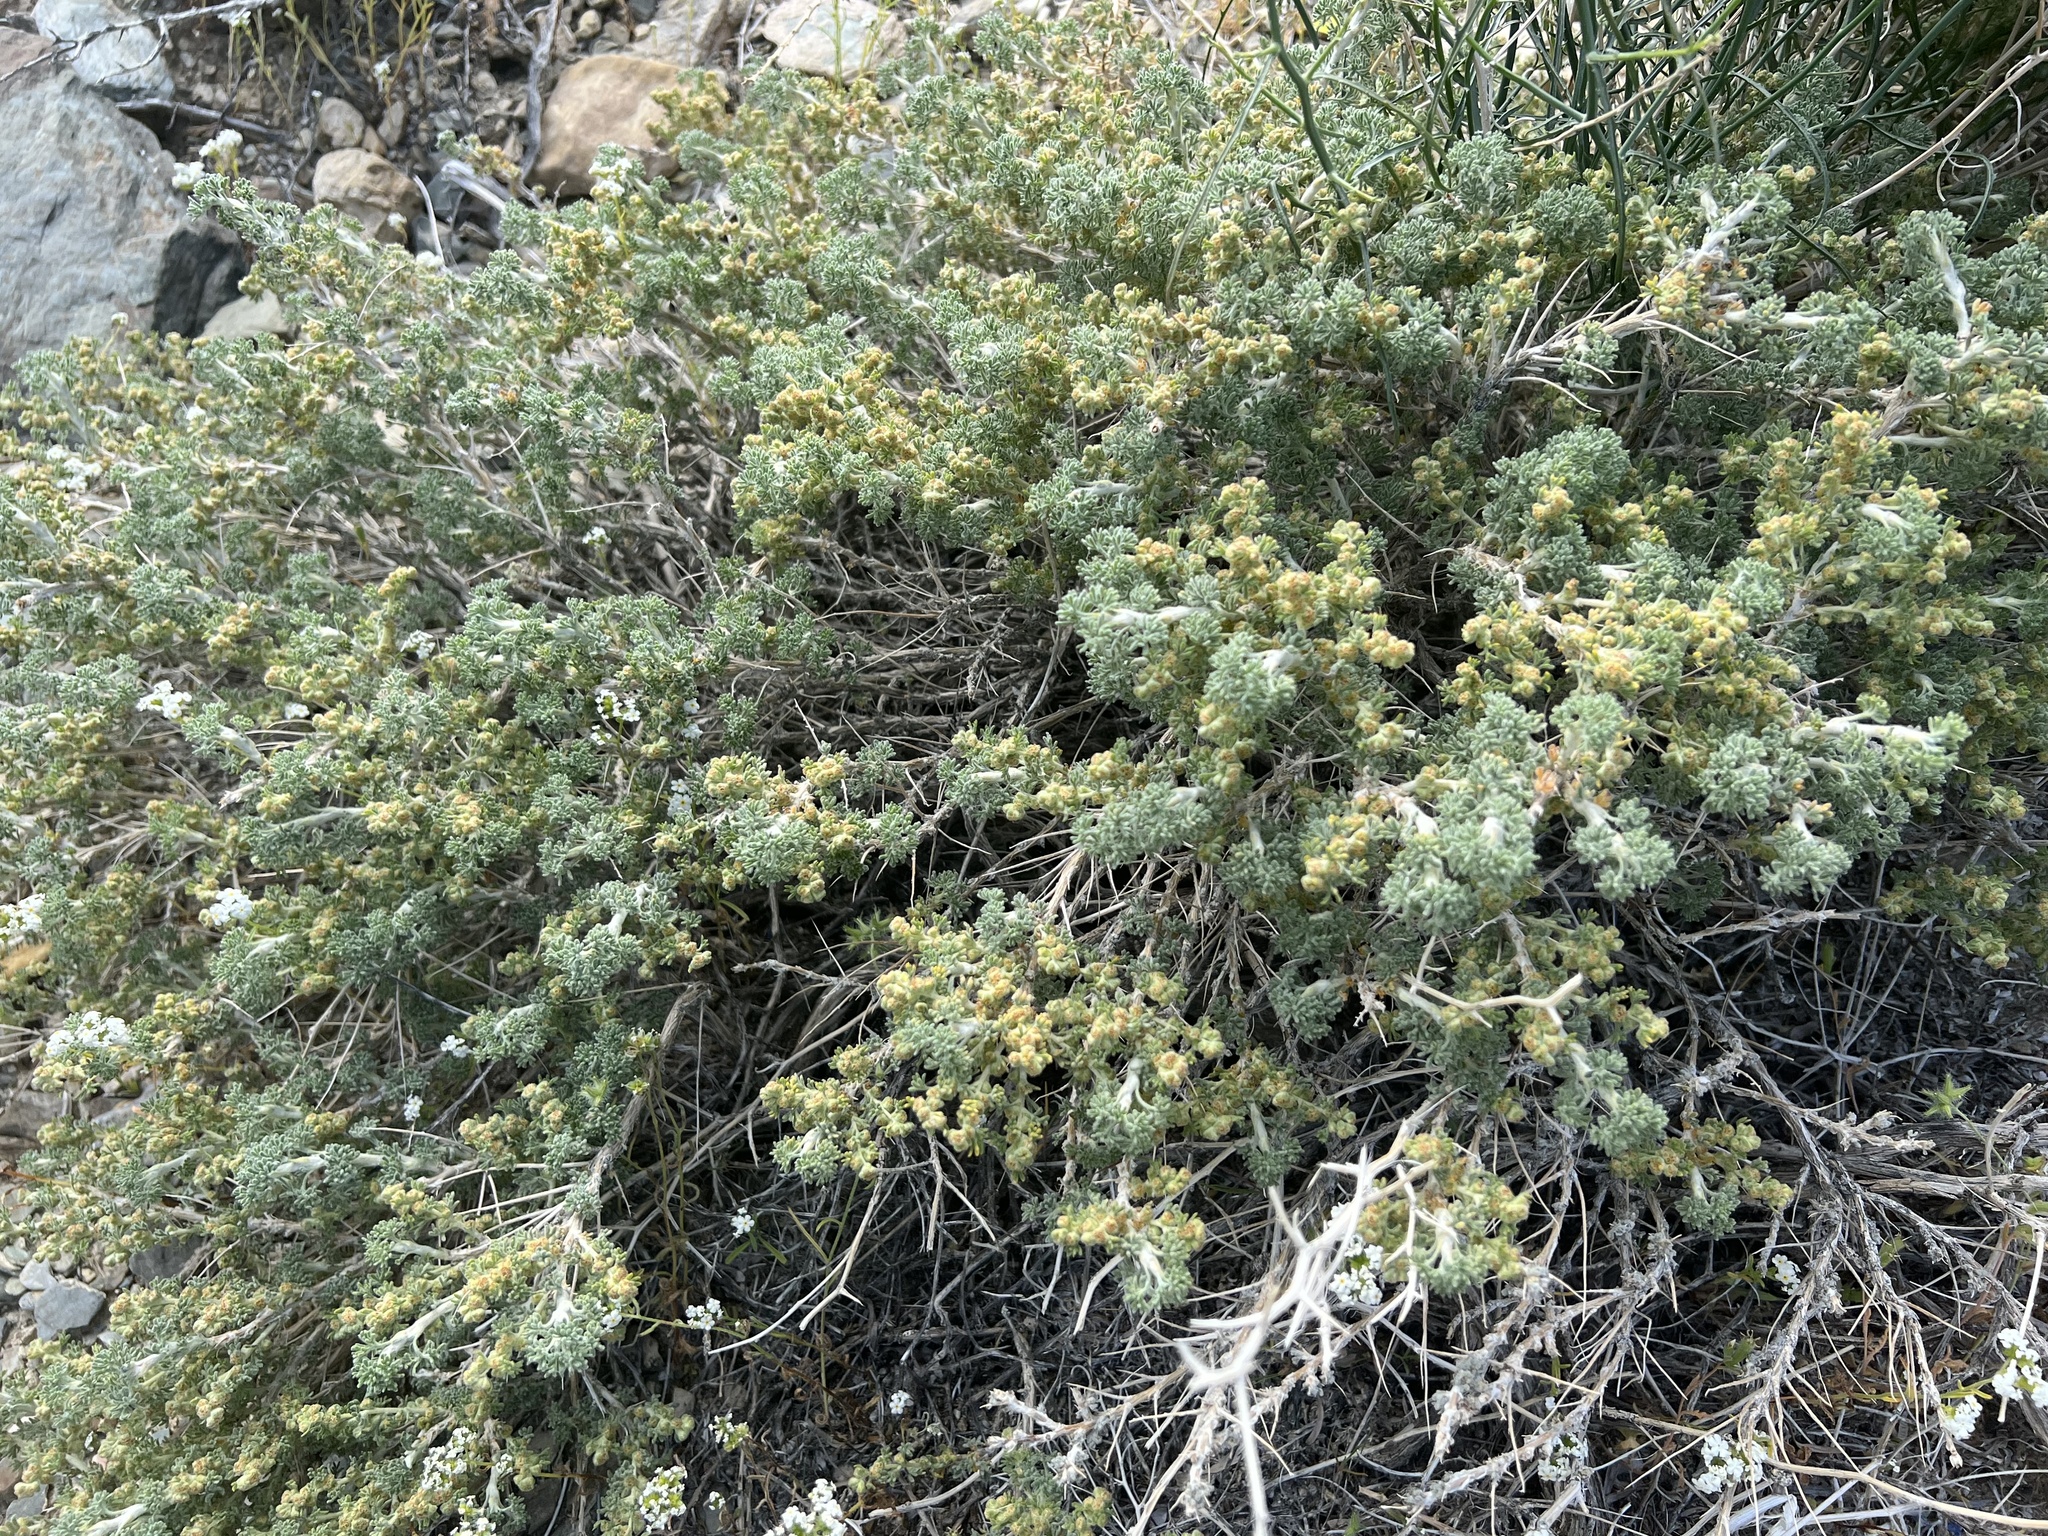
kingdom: Plantae
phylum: Tracheophyta
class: Magnoliopsida
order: Asterales
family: Asteraceae
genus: Artemisia
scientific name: Artemisia spinescens
